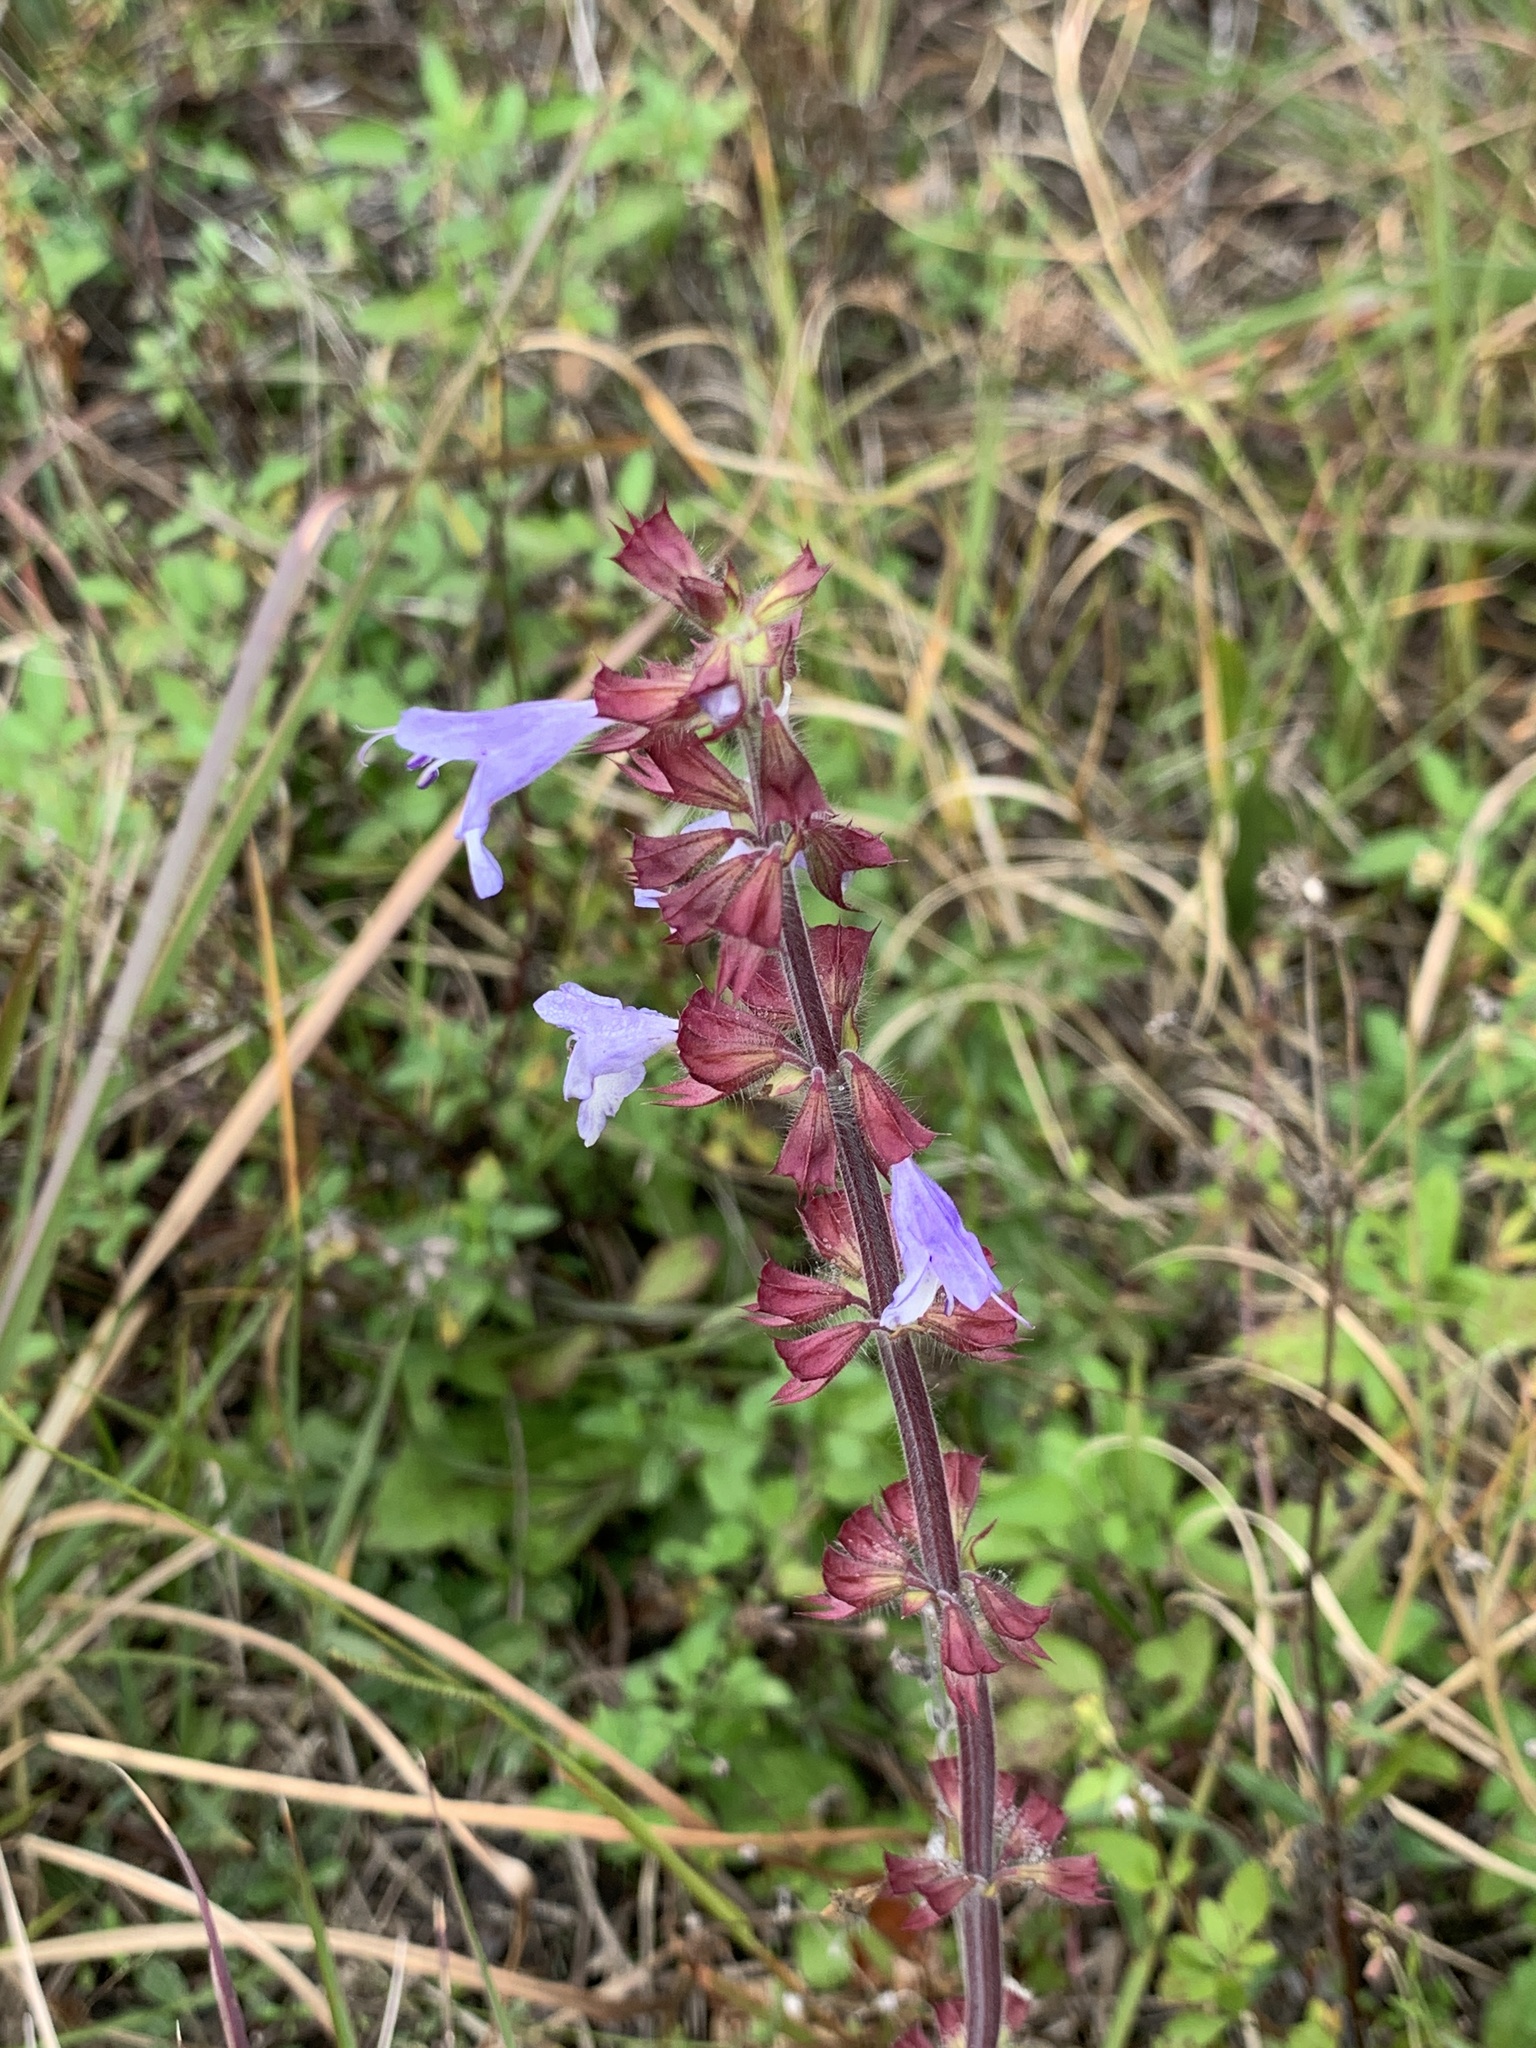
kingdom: Plantae
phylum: Tracheophyta
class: Magnoliopsida
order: Lamiales
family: Lamiaceae
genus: Salvia
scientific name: Salvia lyrata
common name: Cancerweed
